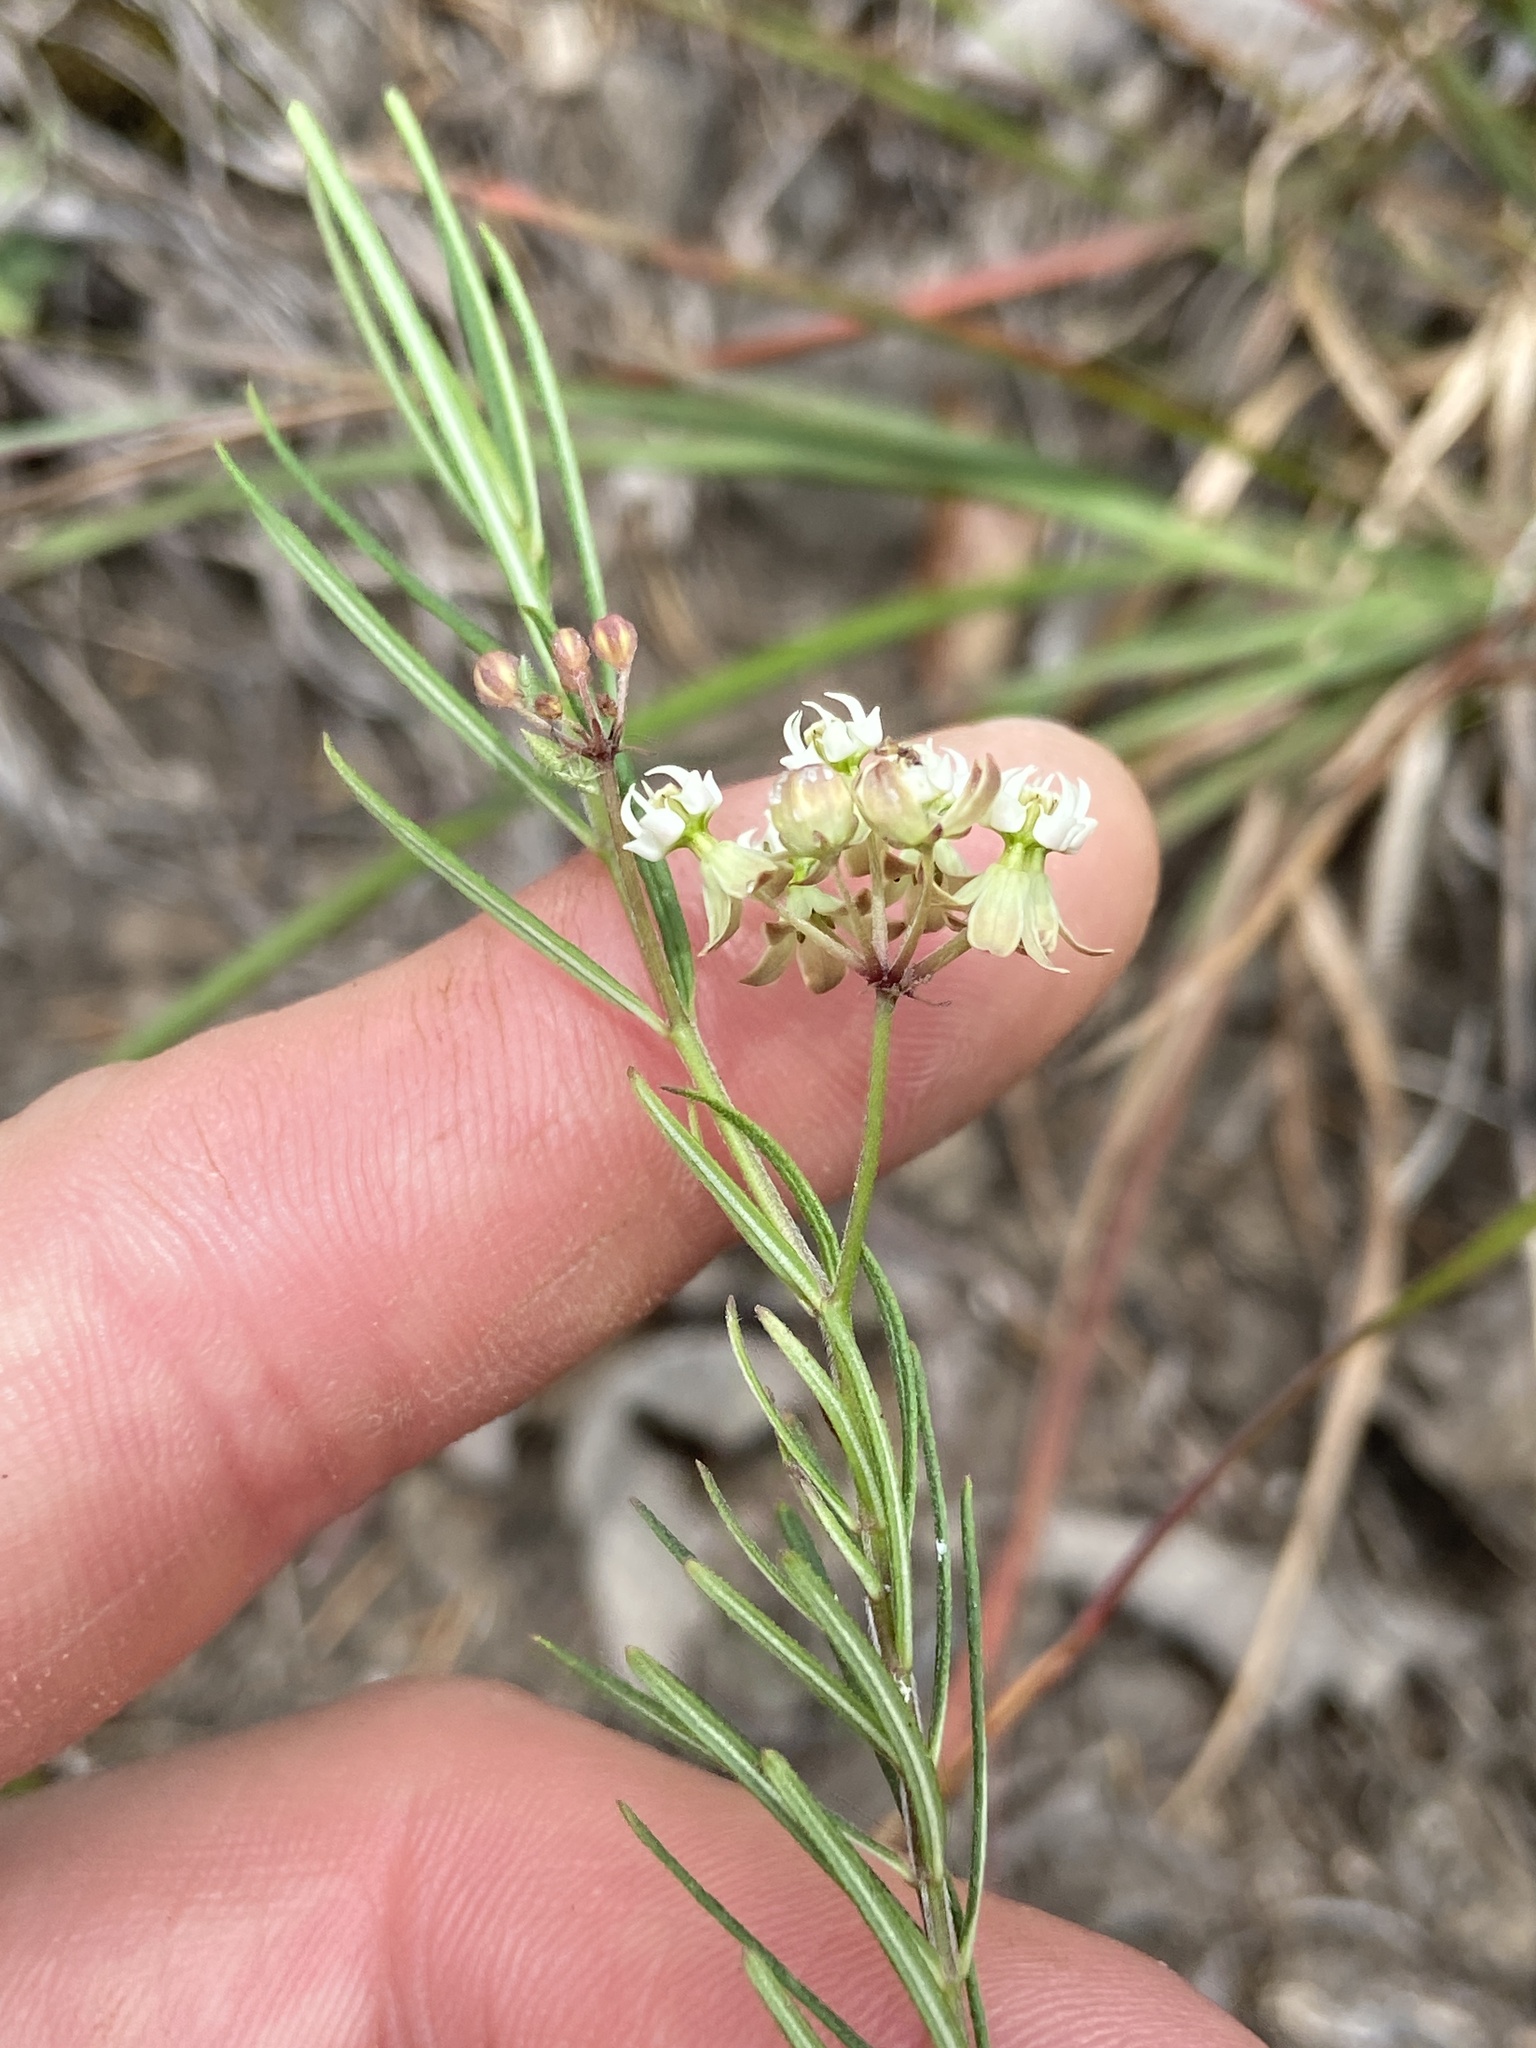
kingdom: Plantae
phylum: Tracheophyta
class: Magnoliopsida
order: Gentianales
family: Apocynaceae
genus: Asclepias
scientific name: Asclepias verticillata
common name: Eastern whorled milkweed
